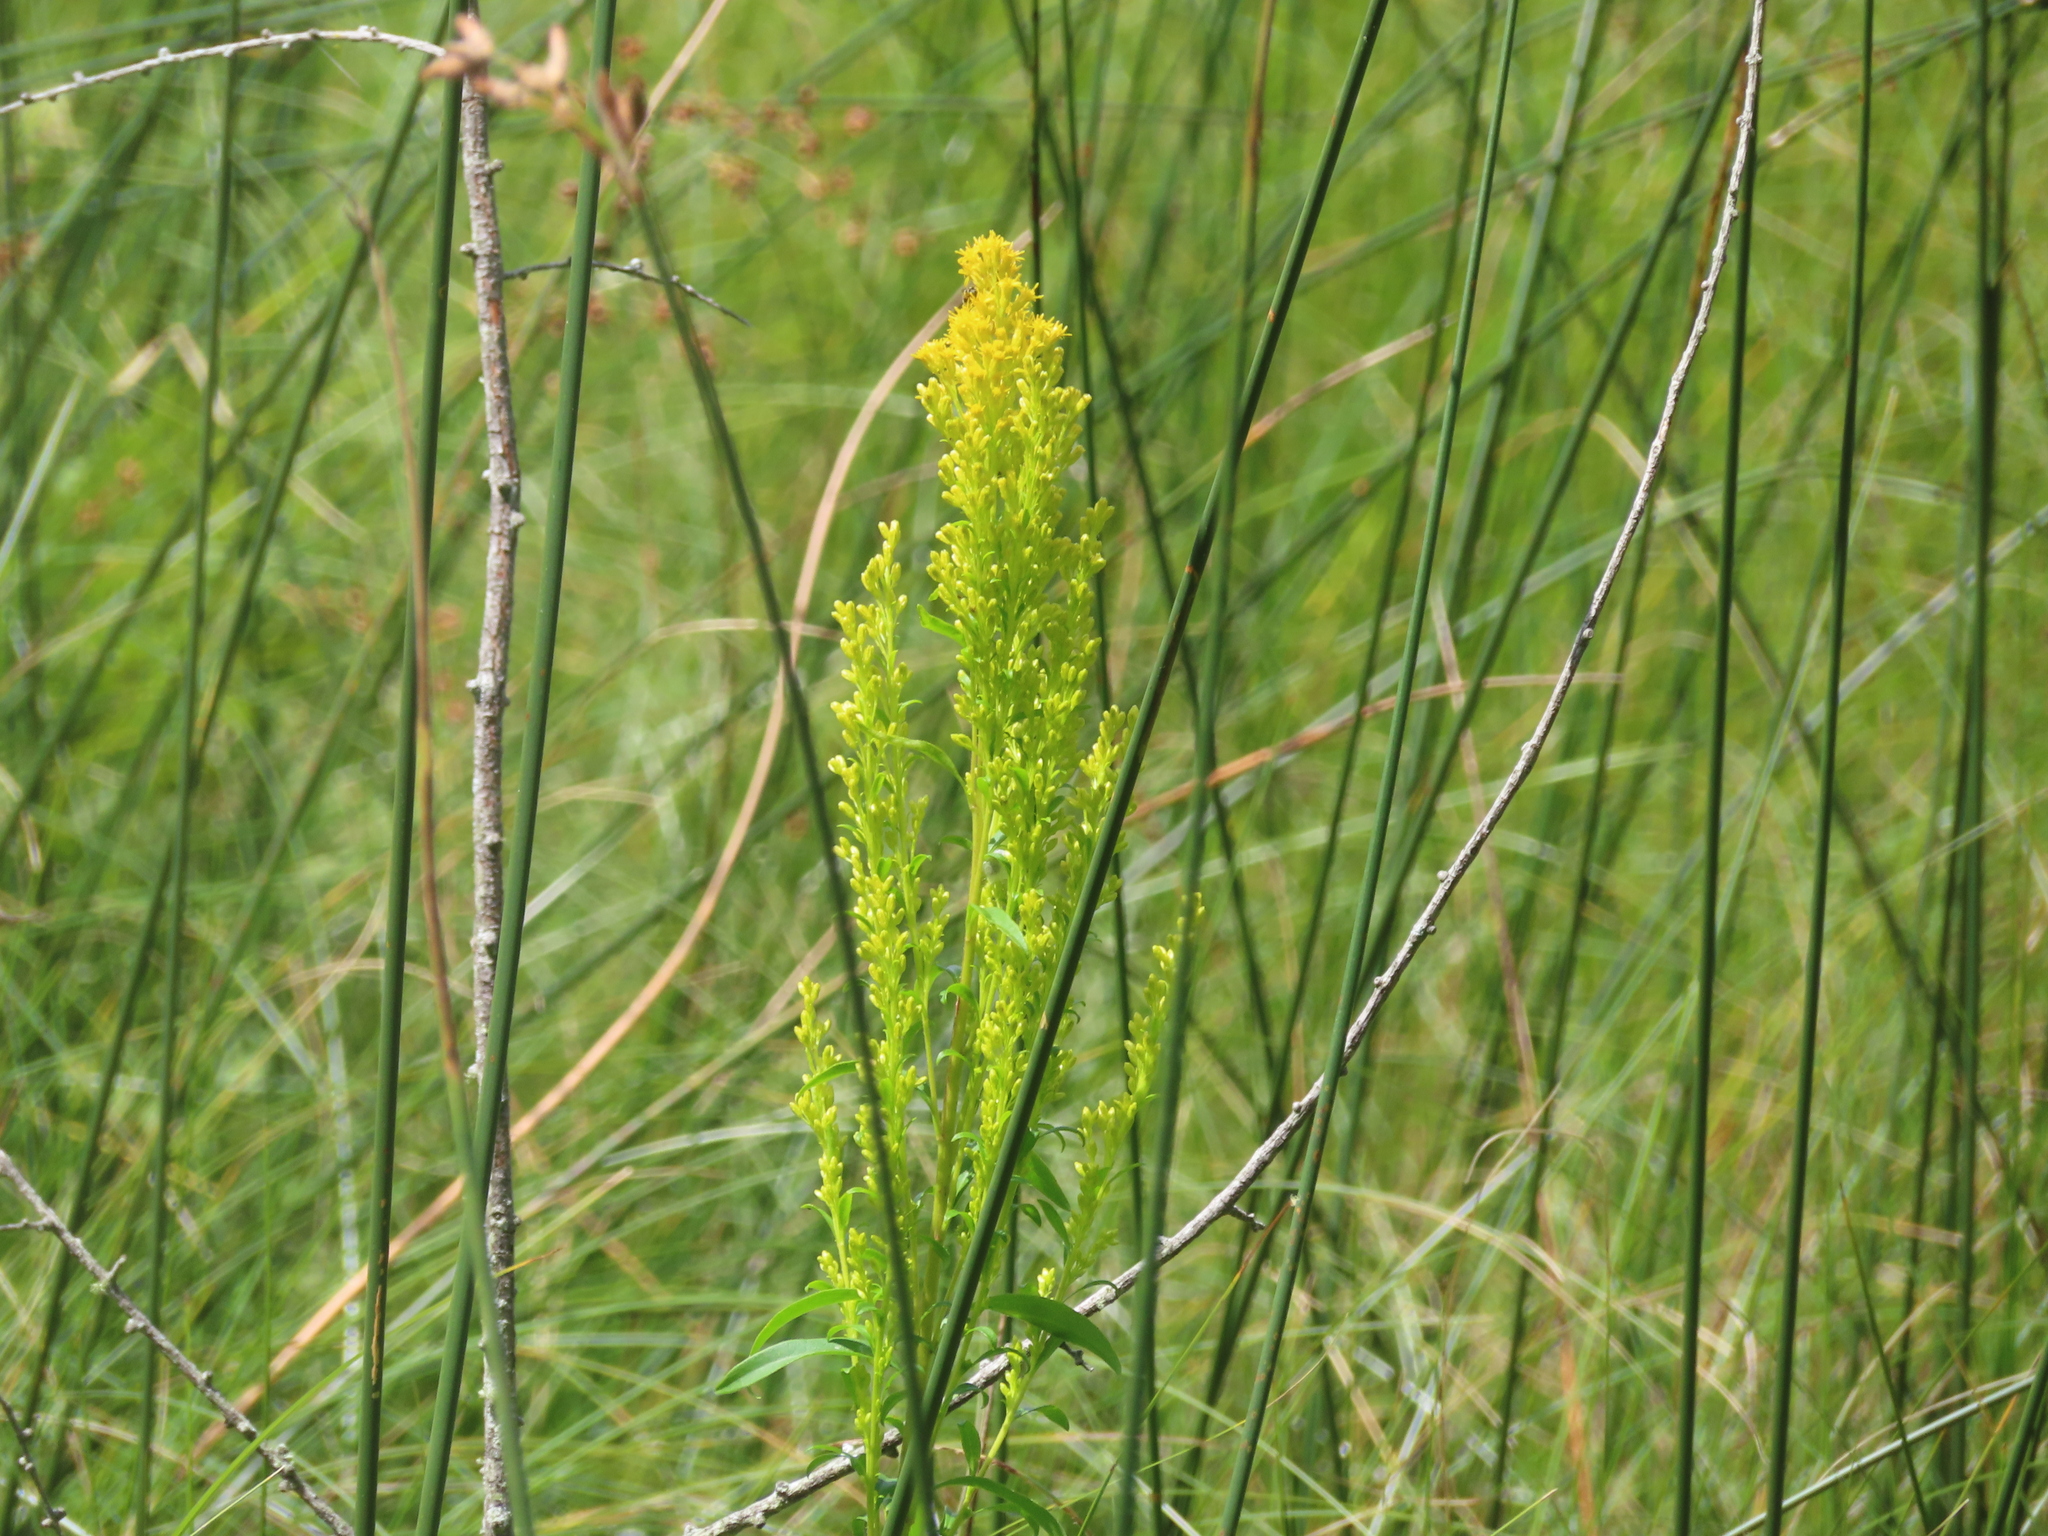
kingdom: Plantae
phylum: Tracheophyta
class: Magnoliopsida
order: Asterales
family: Asteraceae
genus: Solidago
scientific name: Solidago uliginosa
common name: Bog goldenrod
